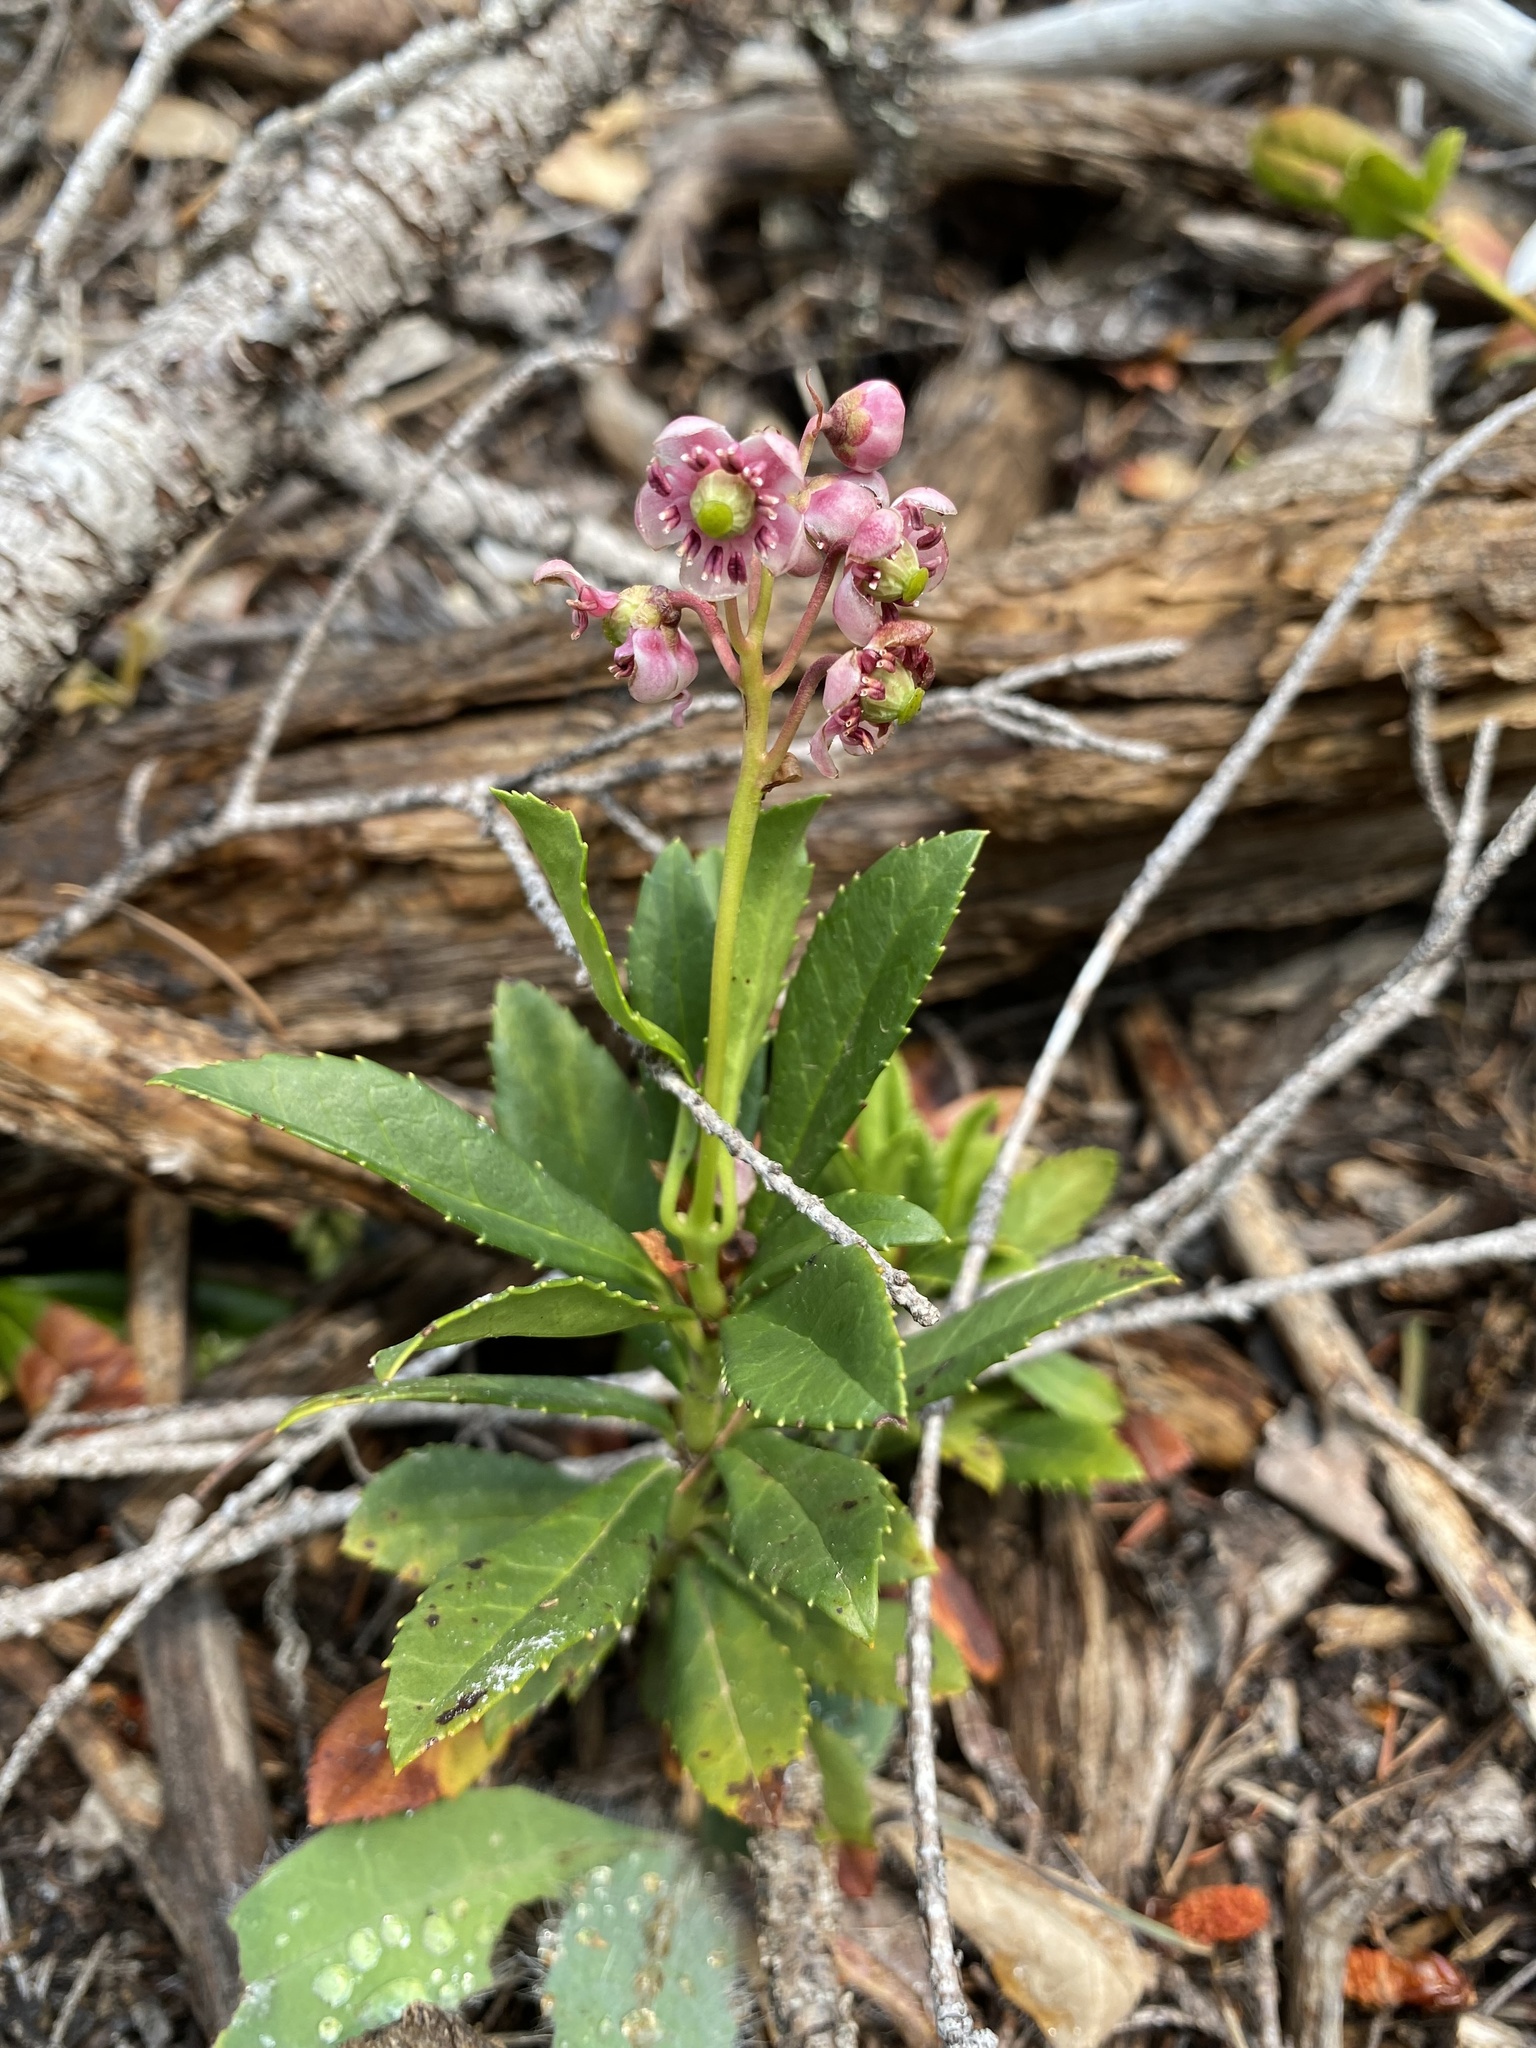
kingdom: Plantae
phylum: Tracheophyta
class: Magnoliopsida
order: Ericales
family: Ericaceae
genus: Chimaphila
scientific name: Chimaphila umbellata
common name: Pipsissewa
